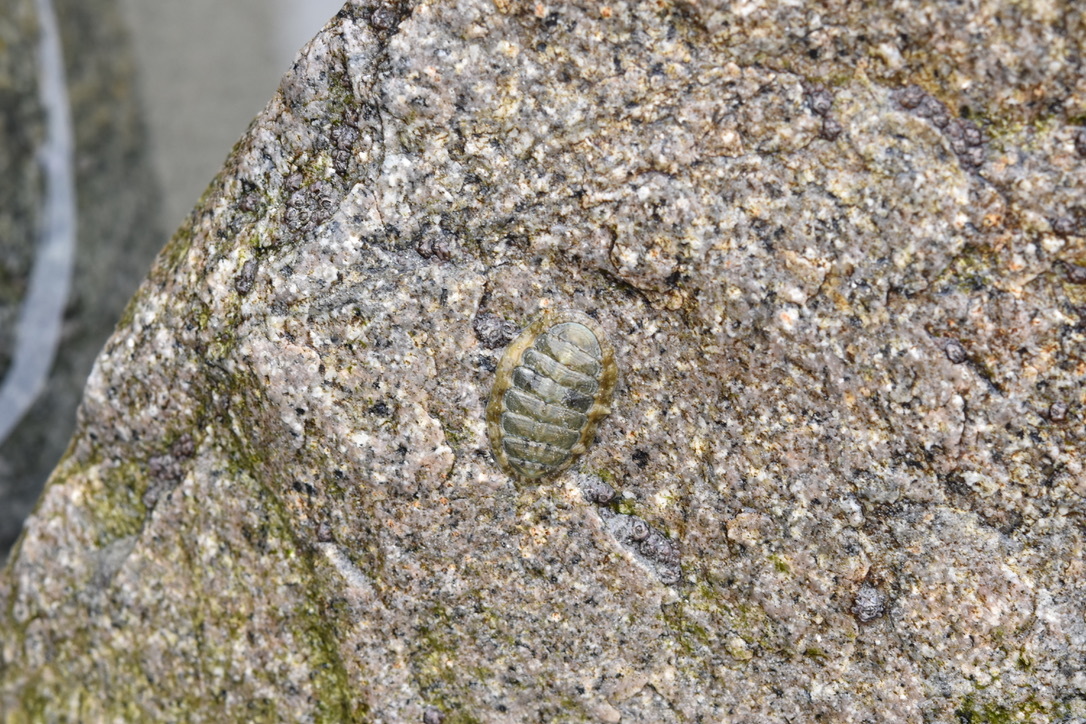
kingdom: Animalia
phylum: Mollusca
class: Polyplacophora
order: Chitonida
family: Tonicellidae
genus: Cyanoplax
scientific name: Cyanoplax hartwegii
